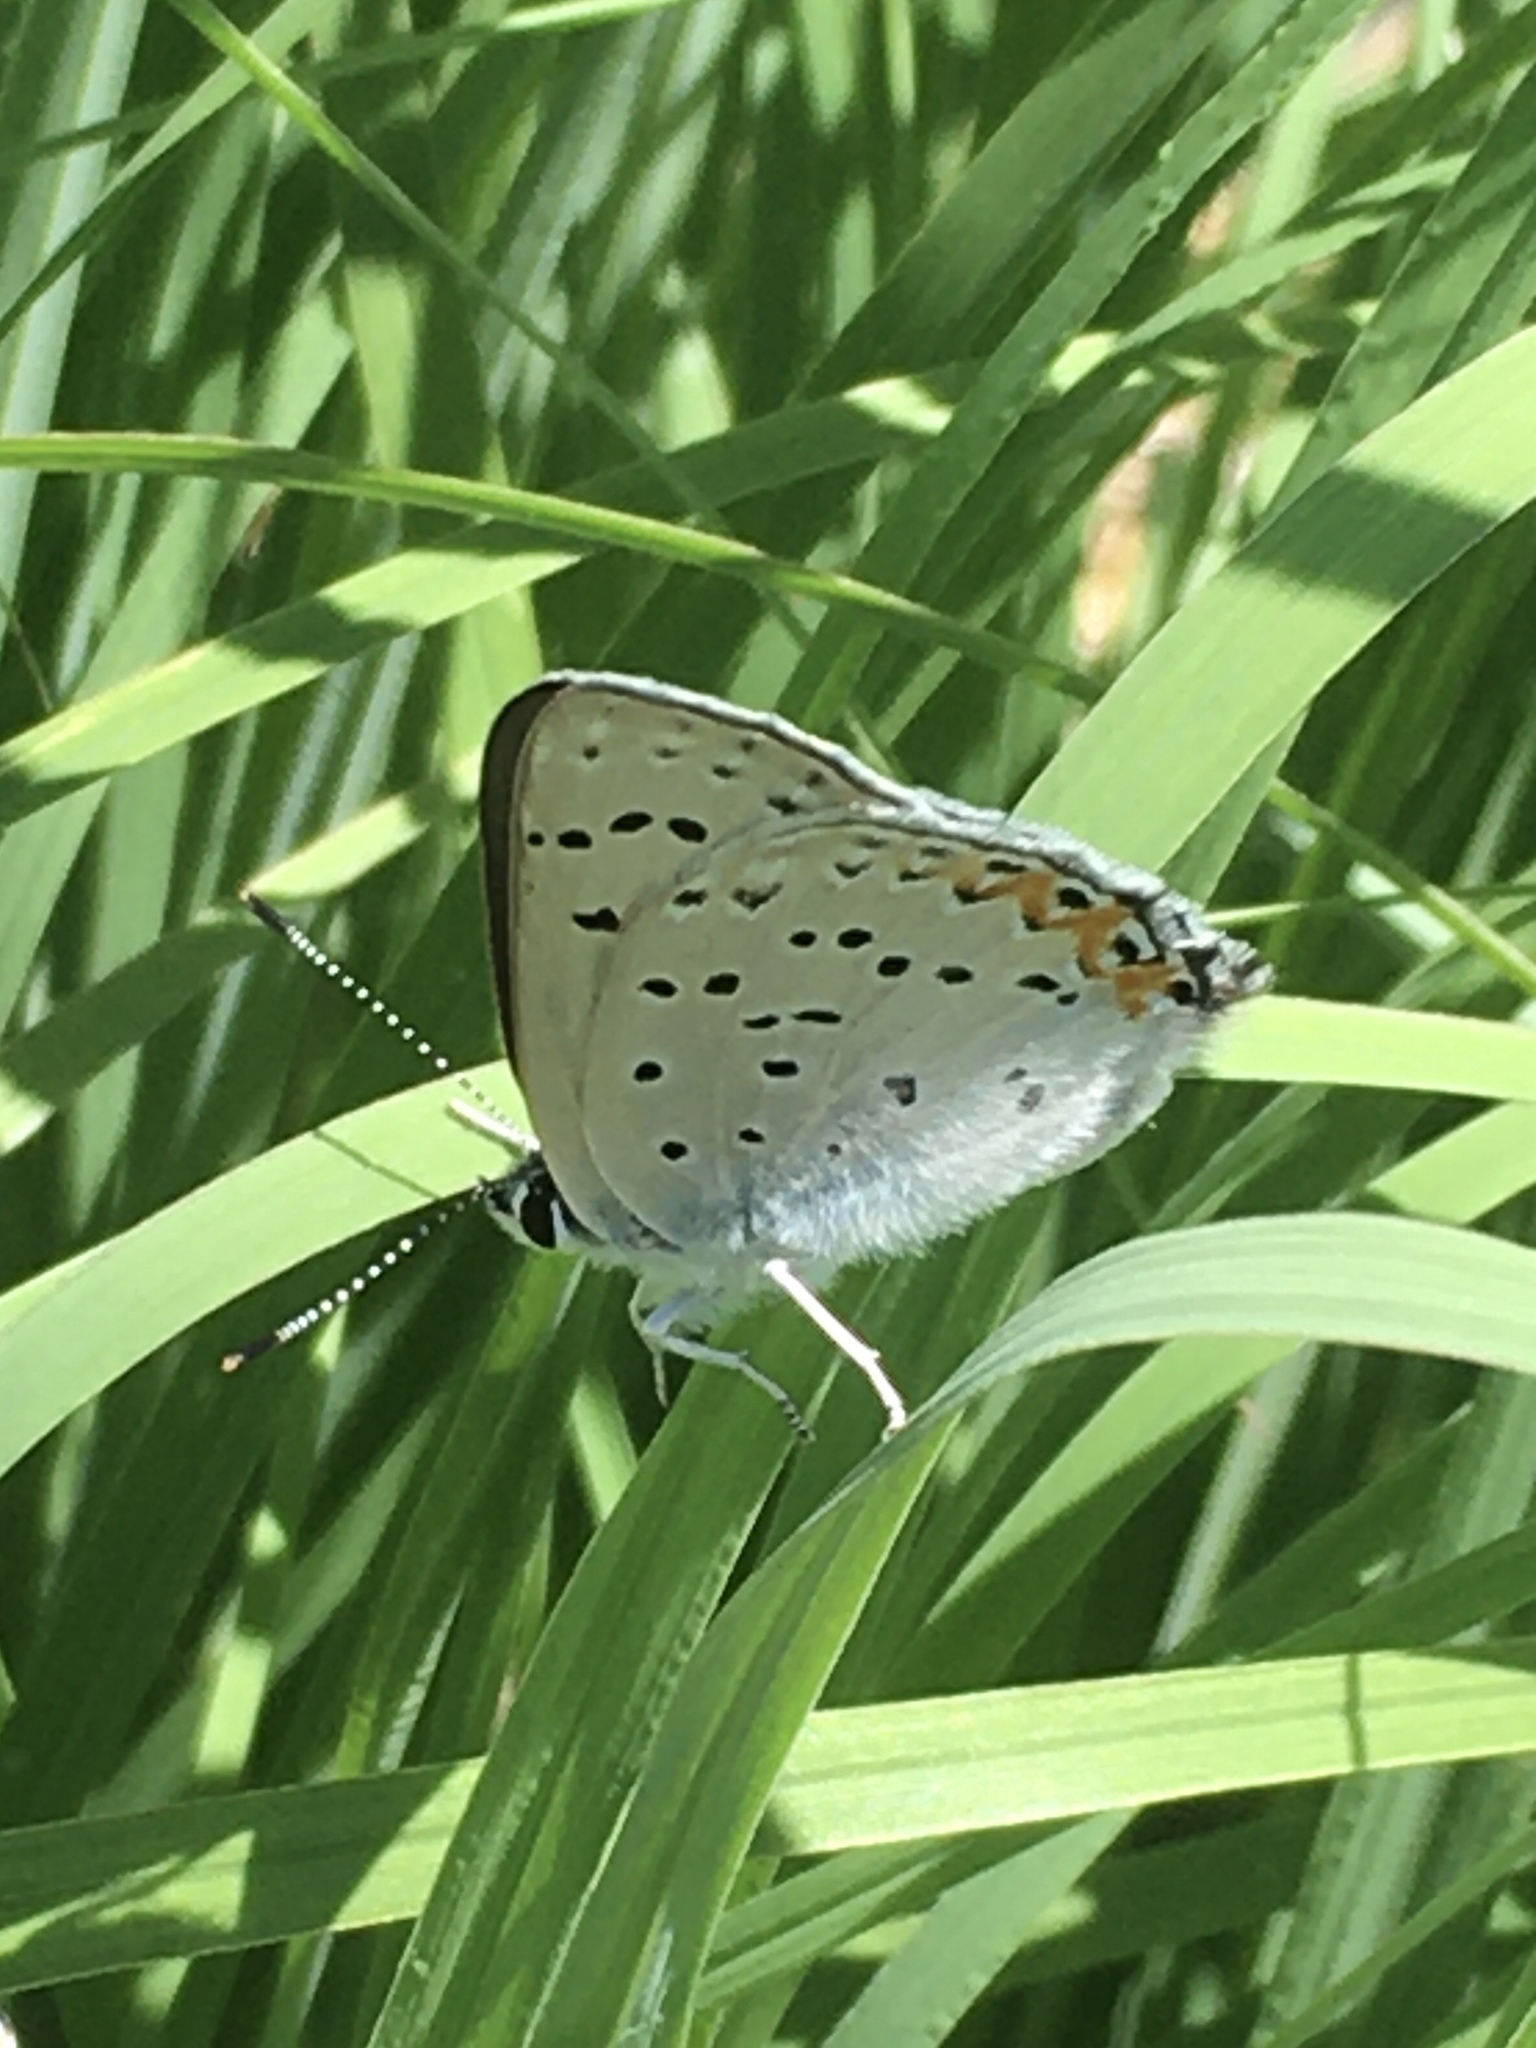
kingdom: Animalia
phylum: Arthropoda
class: Insecta
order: Lepidoptera
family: Lycaenidae
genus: Tharsalea
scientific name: Tharsalea dione
